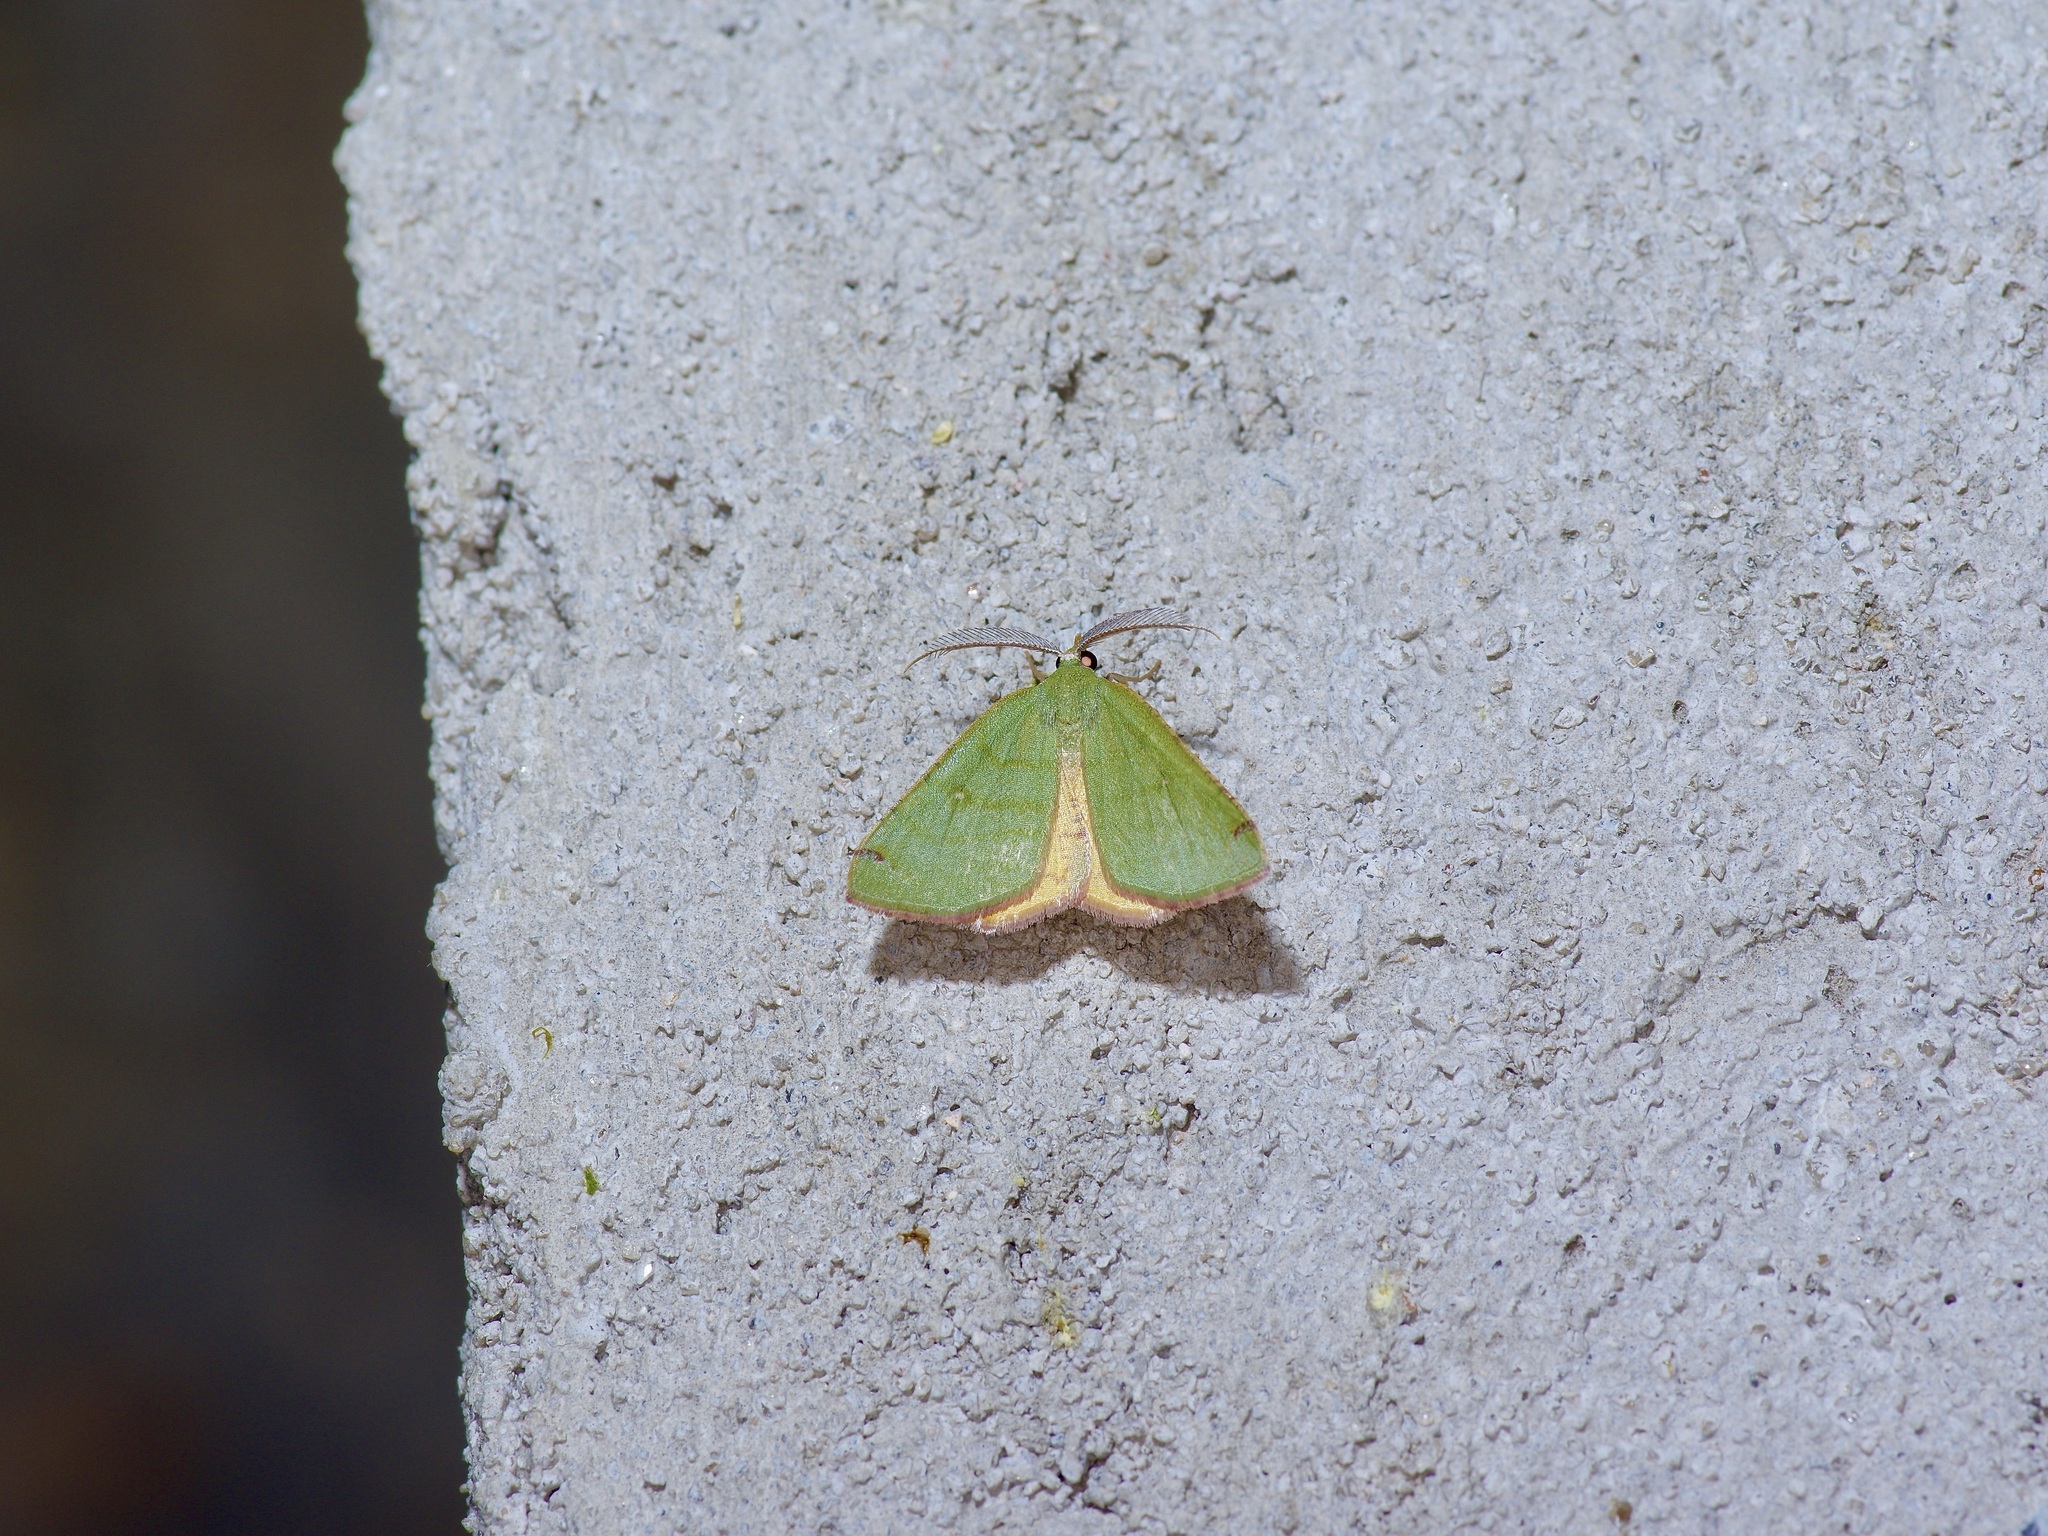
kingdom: Animalia
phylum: Arthropoda
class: Insecta
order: Lepidoptera
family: Geometridae
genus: Chloraspilates
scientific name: Chloraspilates bicoloraria
